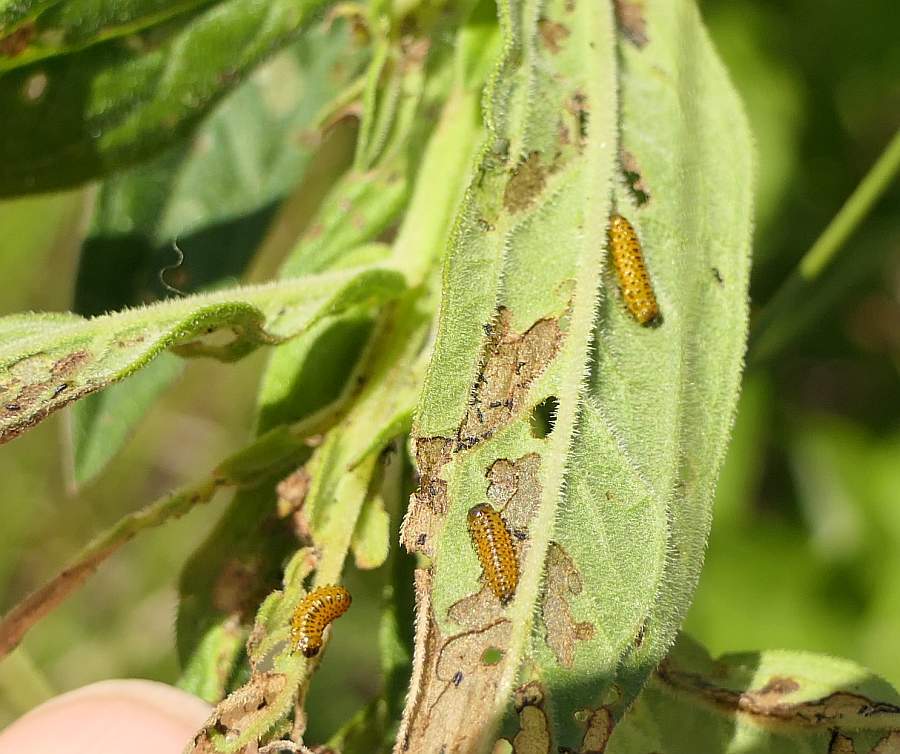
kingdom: Animalia
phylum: Arthropoda
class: Insecta
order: Coleoptera
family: Chrysomelidae
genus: Neogalerucella
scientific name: Neogalerucella calmariensis
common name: Black-margined loosestrife beetle
